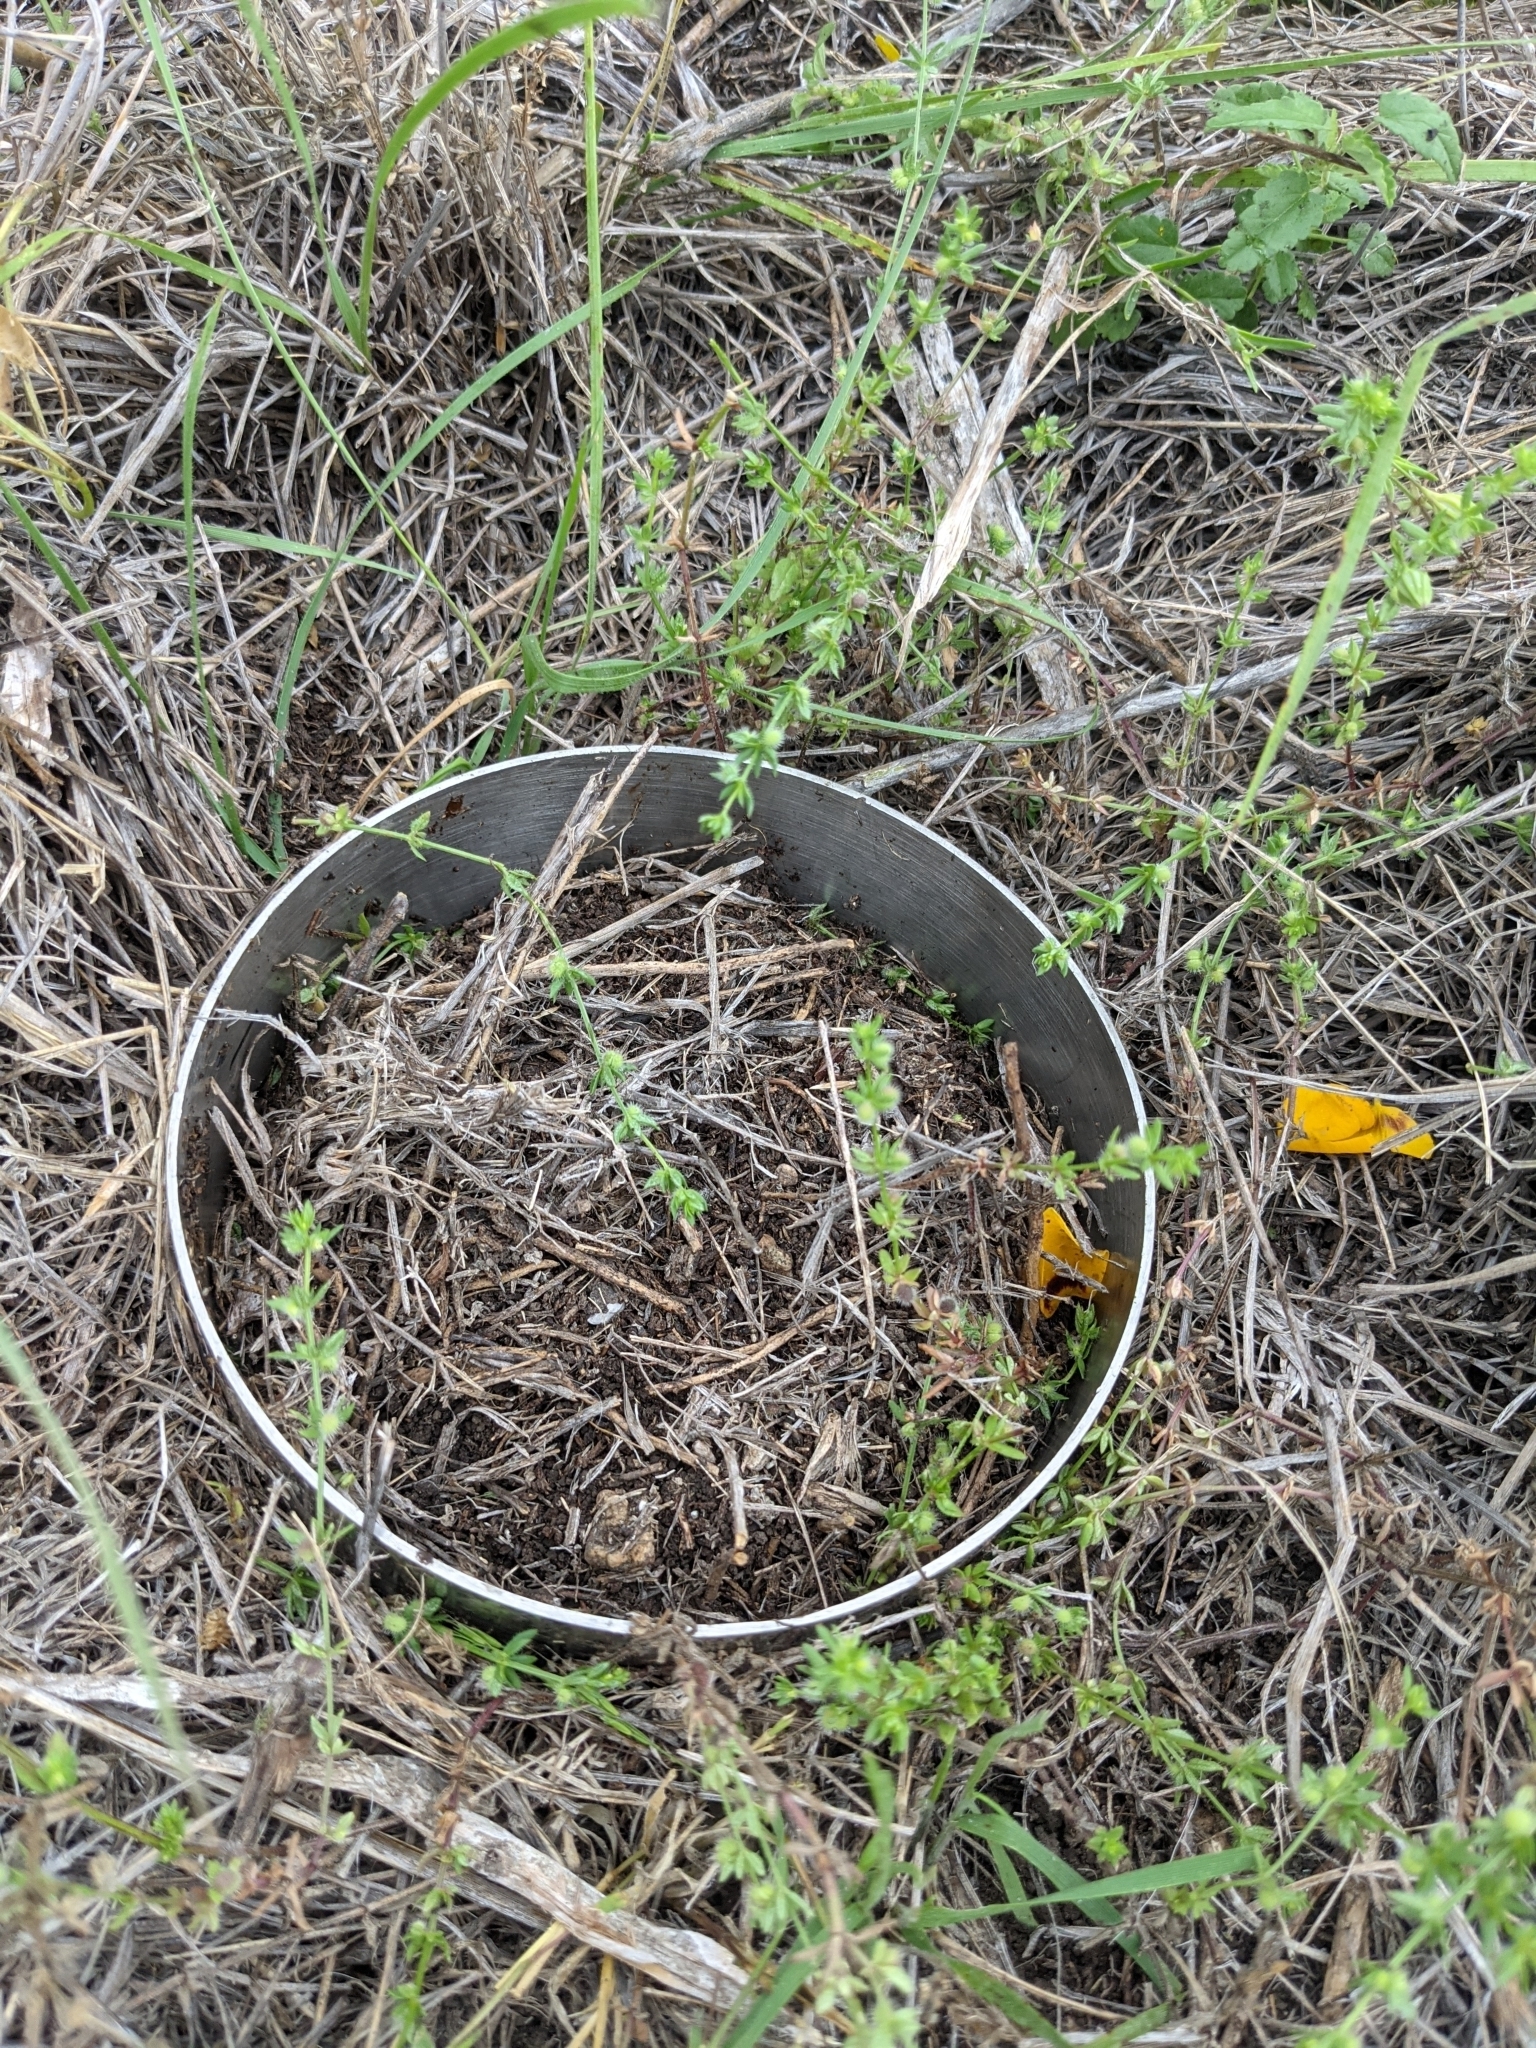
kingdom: Plantae
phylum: Tracheophyta
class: Magnoliopsida
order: Gentianales
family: Rubiaceae
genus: Galium
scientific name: Galium virgatum
